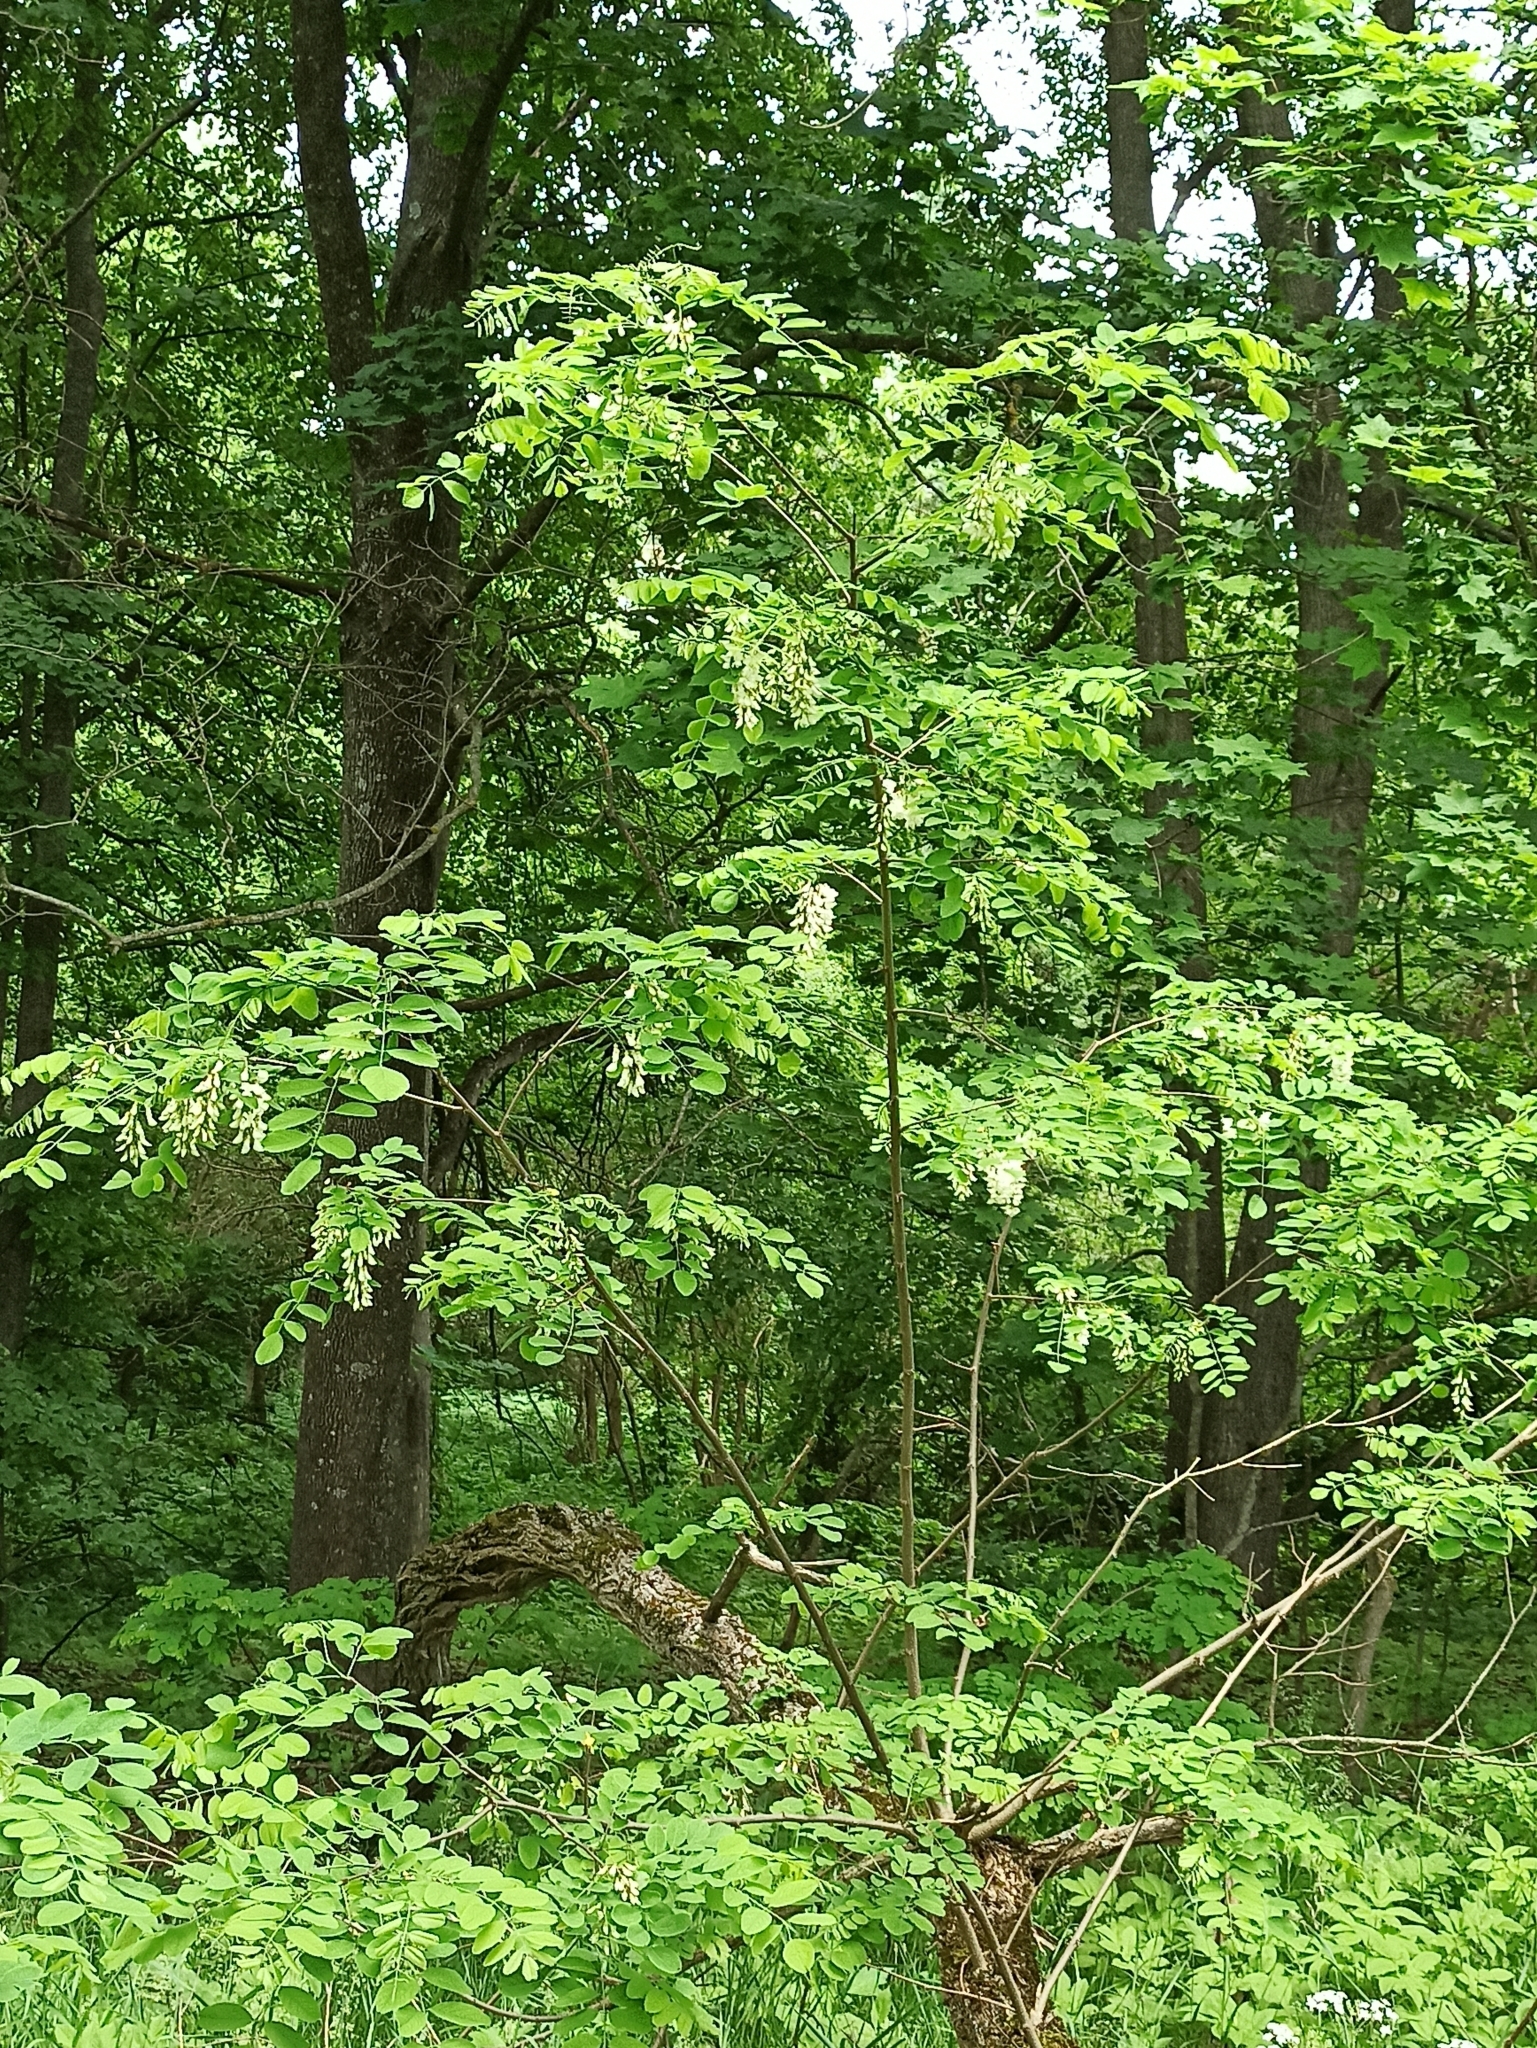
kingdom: Plantae
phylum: Tracheophyta
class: Magnoliopsida
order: Fabales
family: Fabaceae
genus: Robinia
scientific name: Robinia pseudoacacia
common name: Black locust
